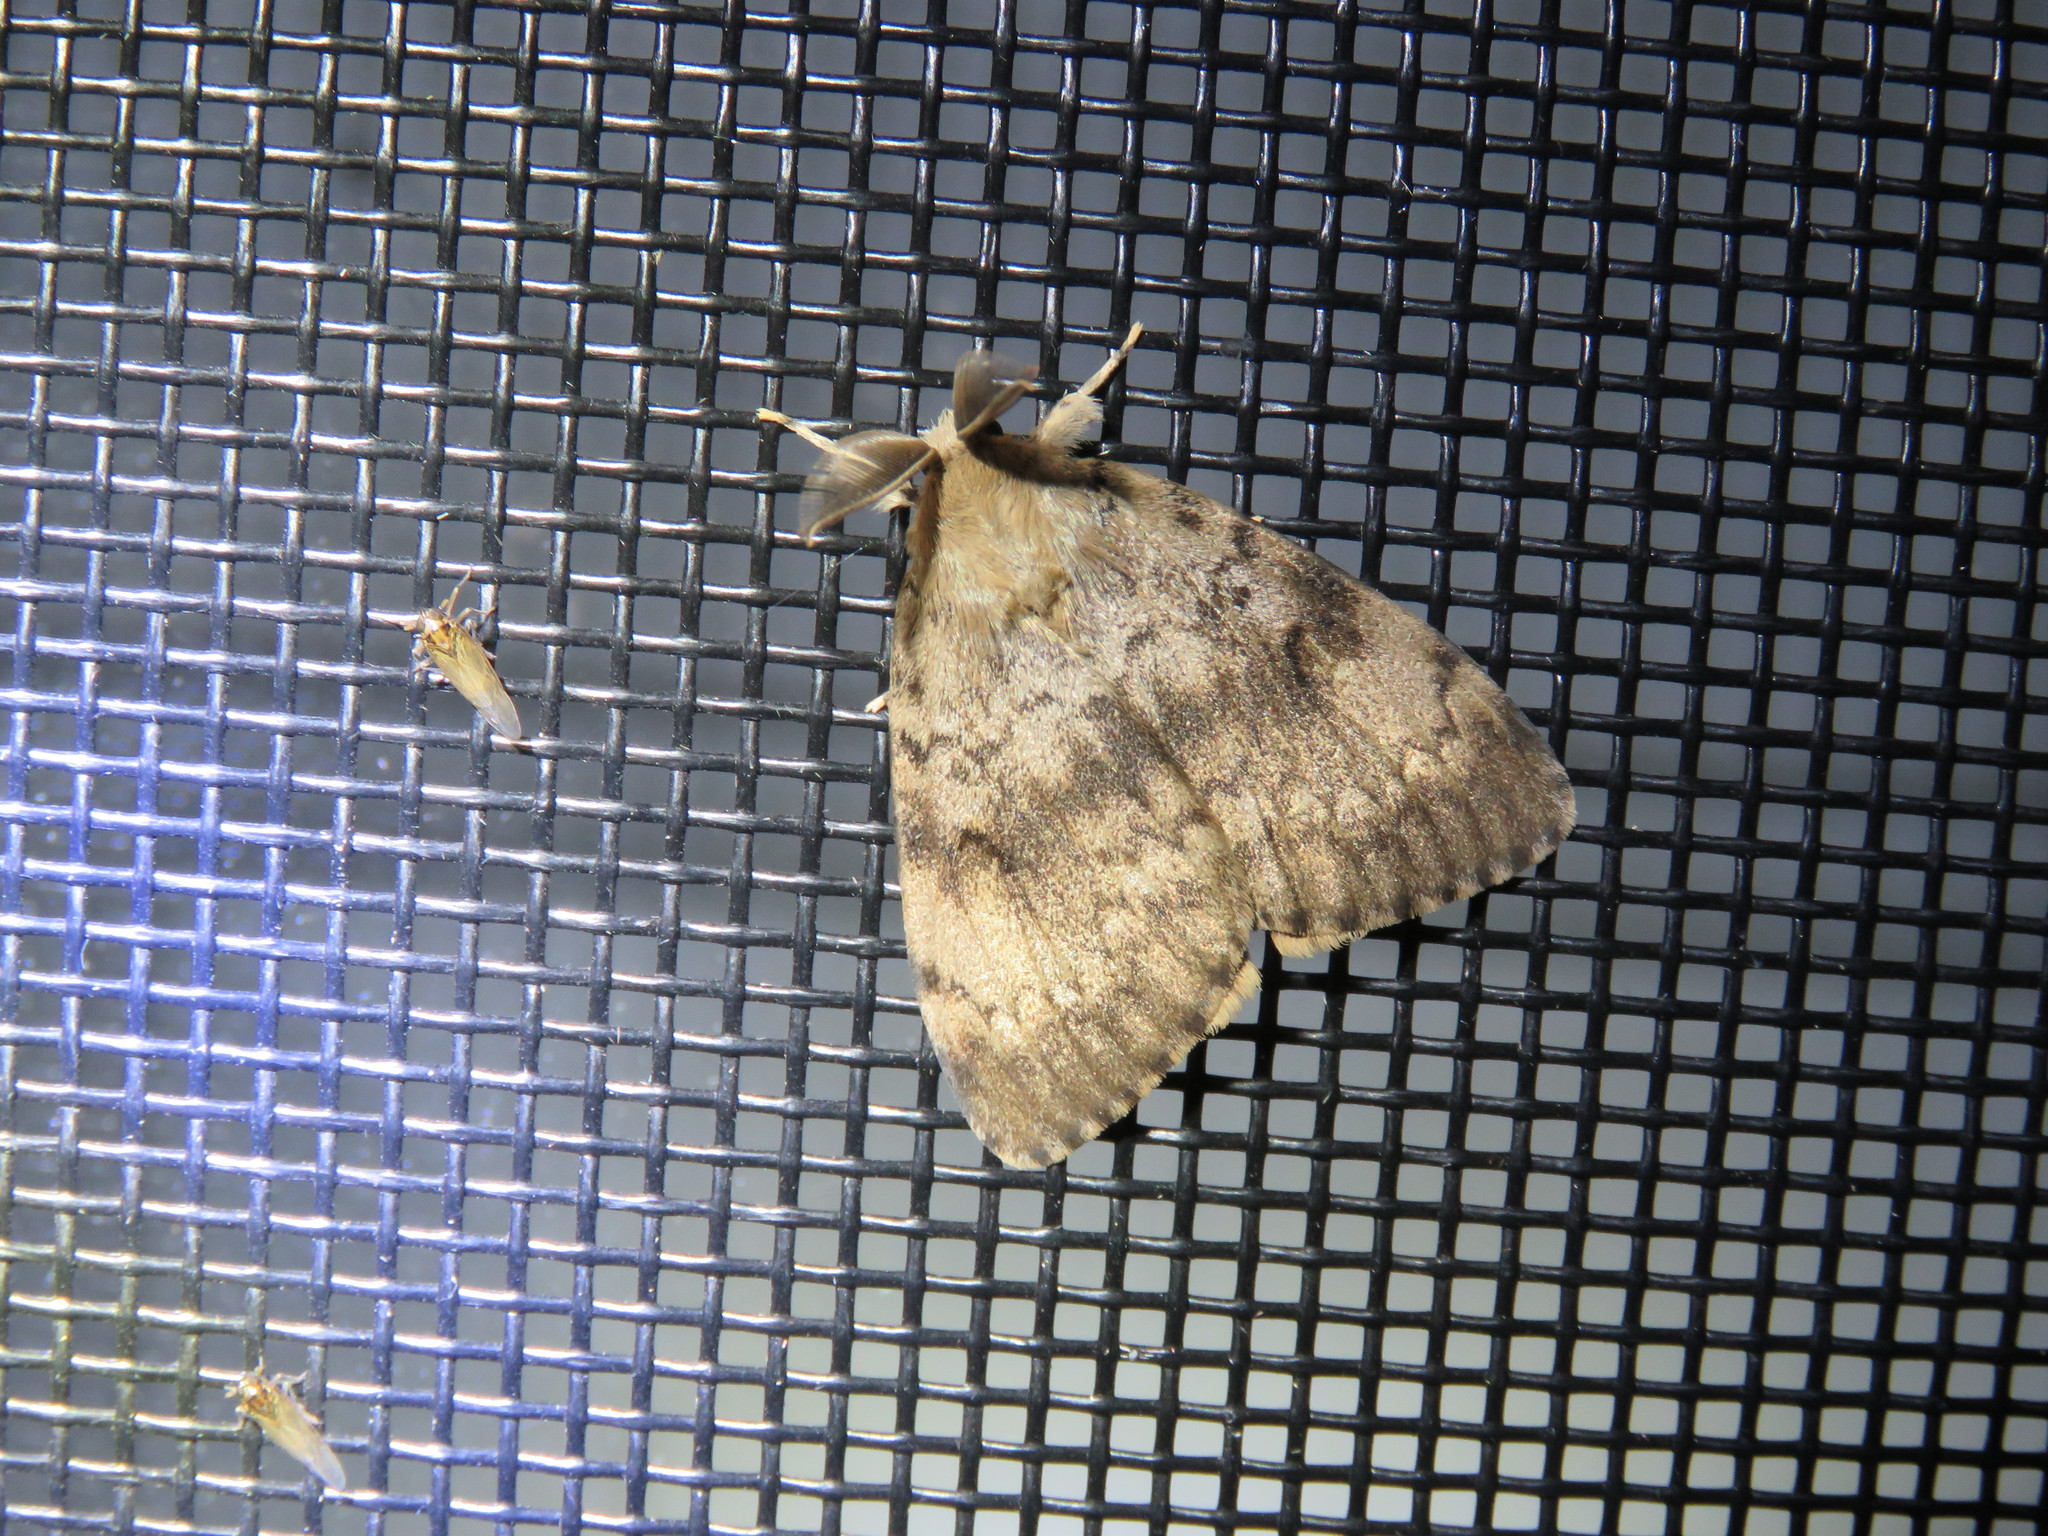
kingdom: Animalia
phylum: Arthropoda
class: Insecta
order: Lepidoptera
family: Erebidae
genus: Lymantria
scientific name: Lymantria dispar
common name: Gypsy moth
